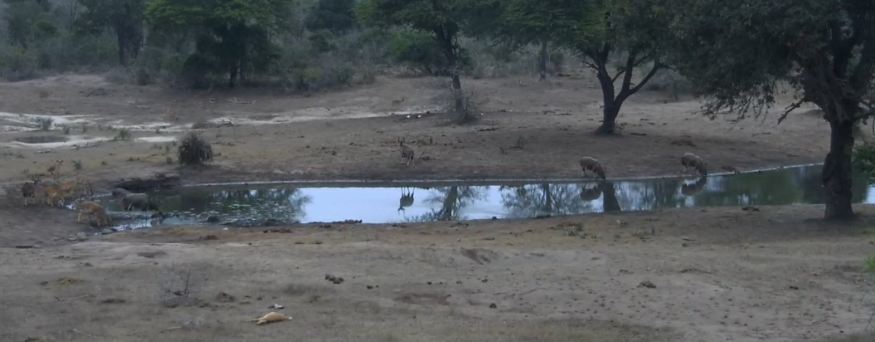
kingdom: Animalia
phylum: Chordata
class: Mammalia
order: Artiodactyla
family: Bovidae
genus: Tragelaphus
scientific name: Tragelaphus angasii
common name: Nyala
